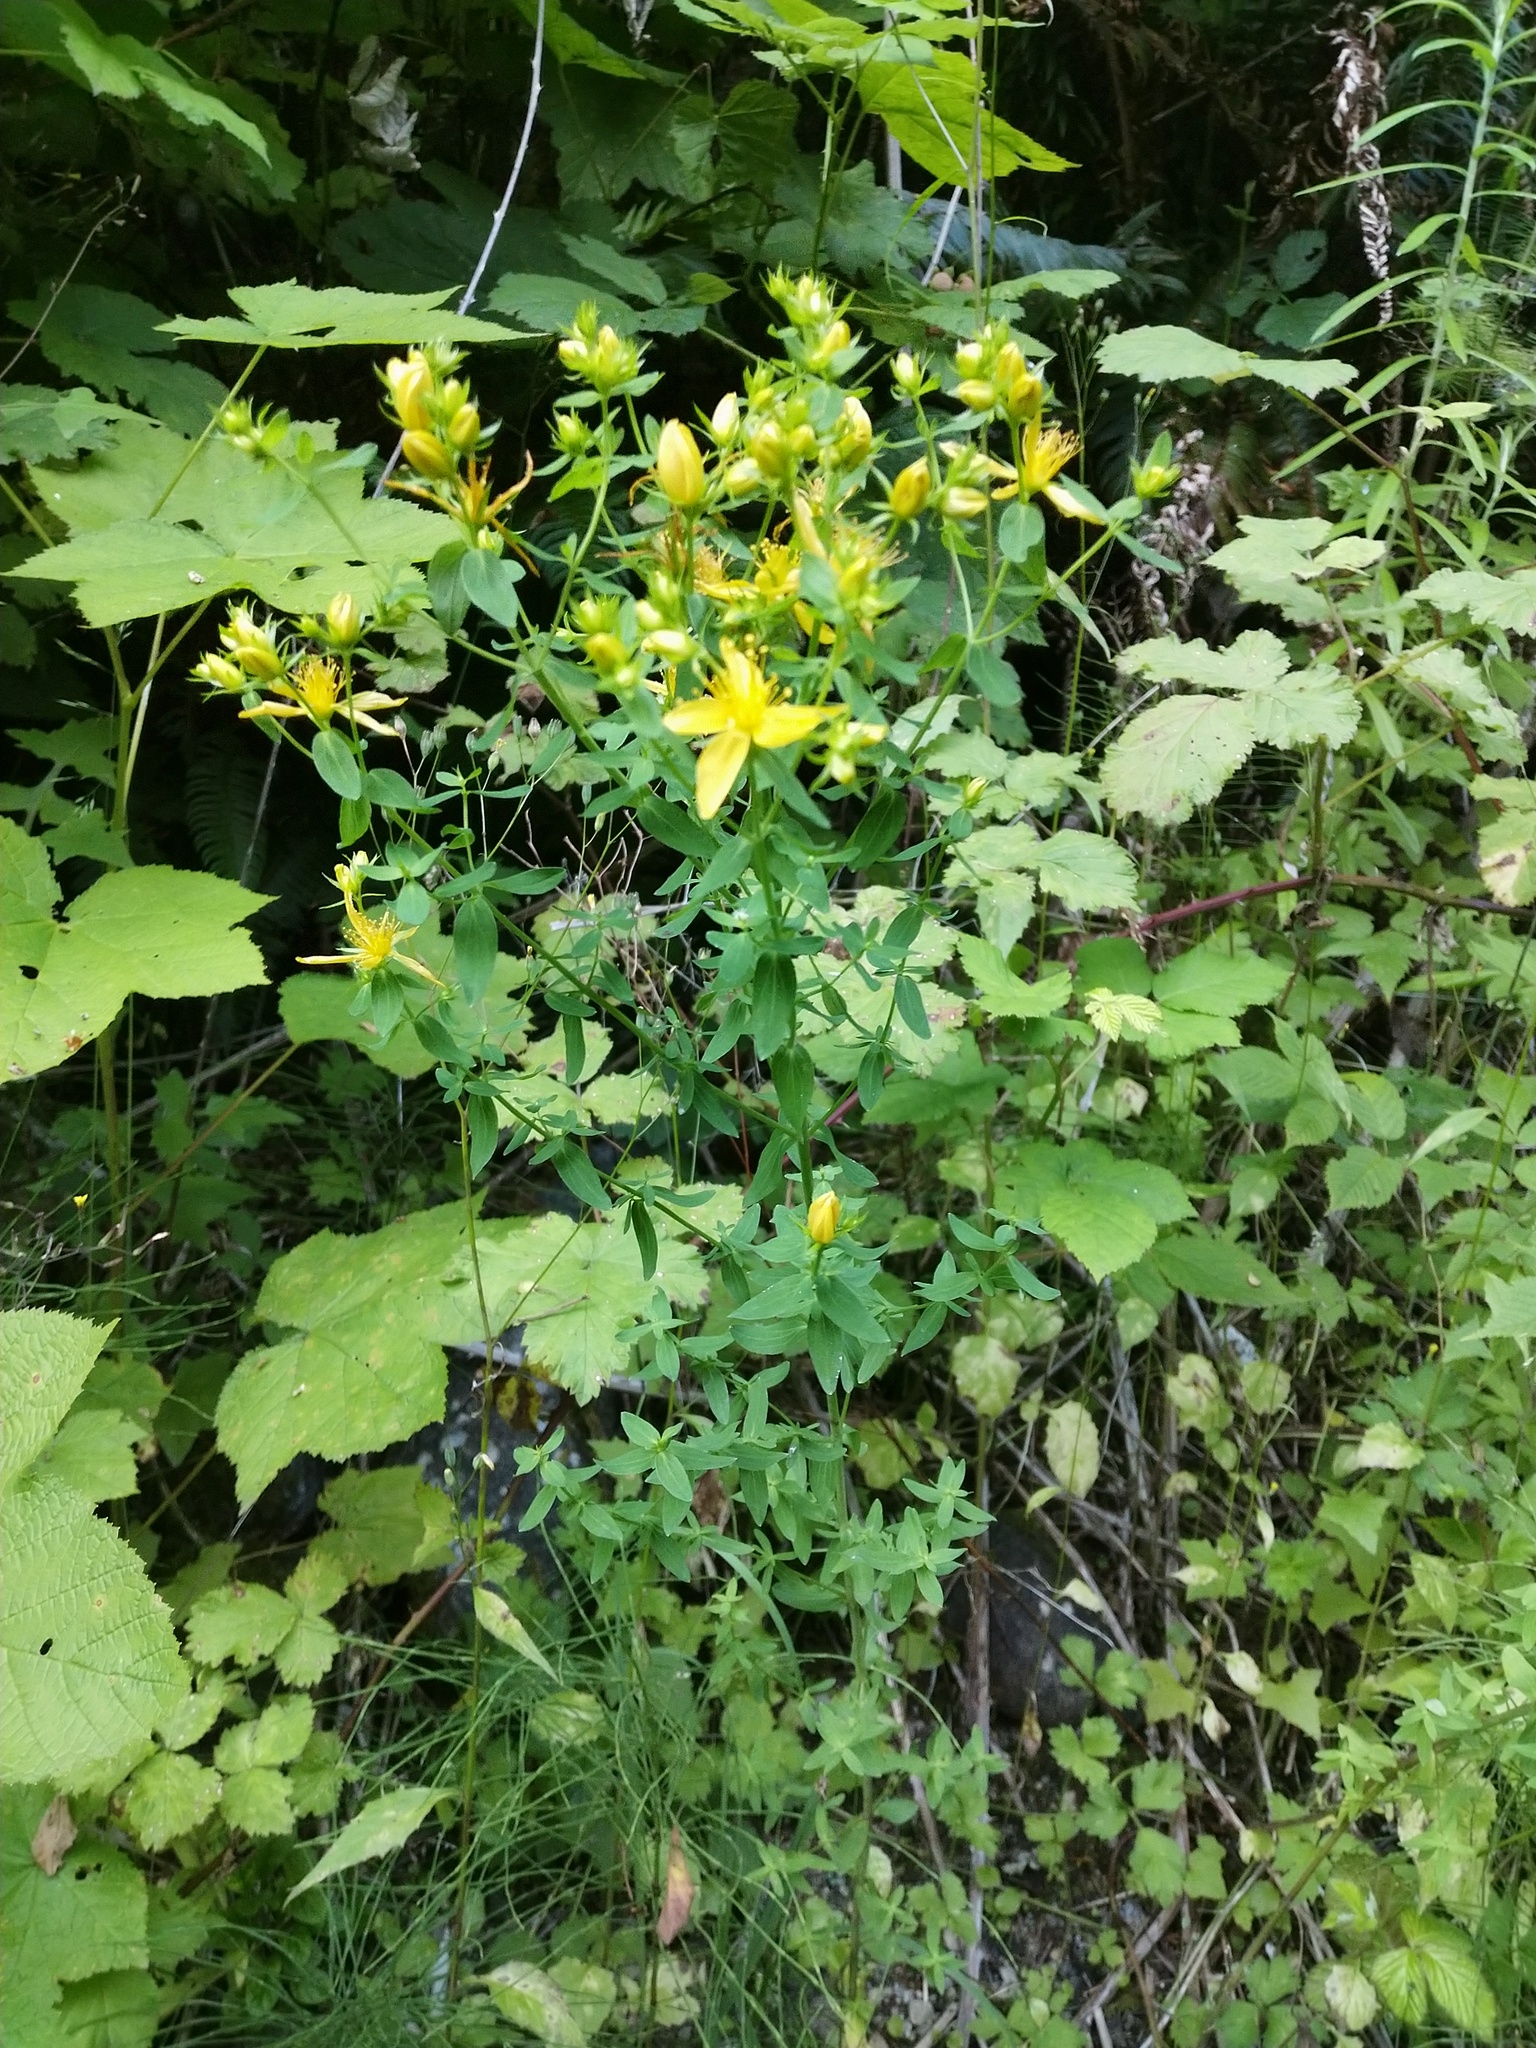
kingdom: Plantae
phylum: Tracheophyta
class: Magnoliopsida
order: Malpighiales
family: Hypericaceae
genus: Hypericum
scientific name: Hypericum perforatum
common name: Common st. johnswort
